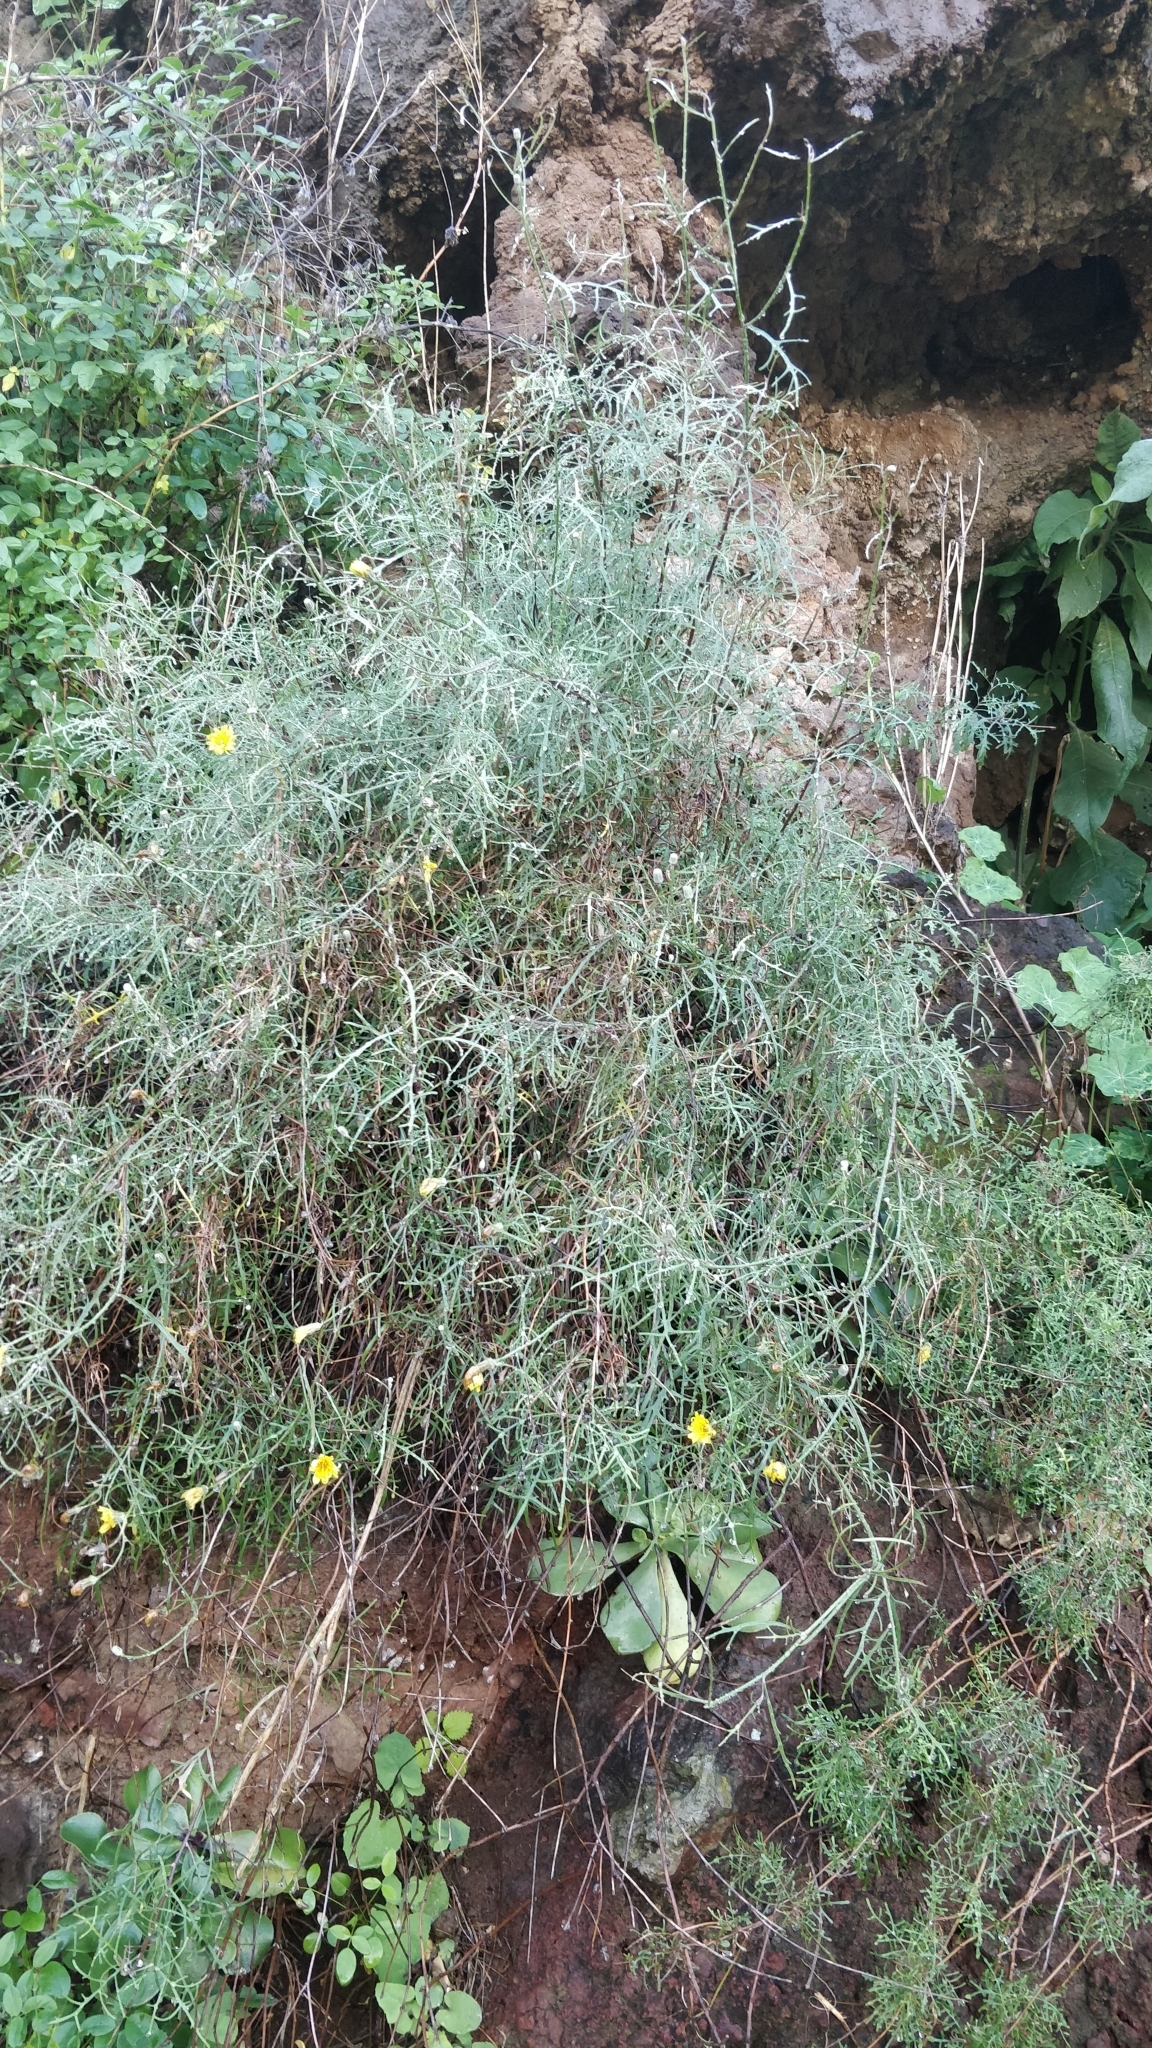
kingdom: Plantae
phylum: Tracheophyta
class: Magnoliopsida
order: Asterales
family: Asteraceae
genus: Tolpis
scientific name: Tolpis succulenta
